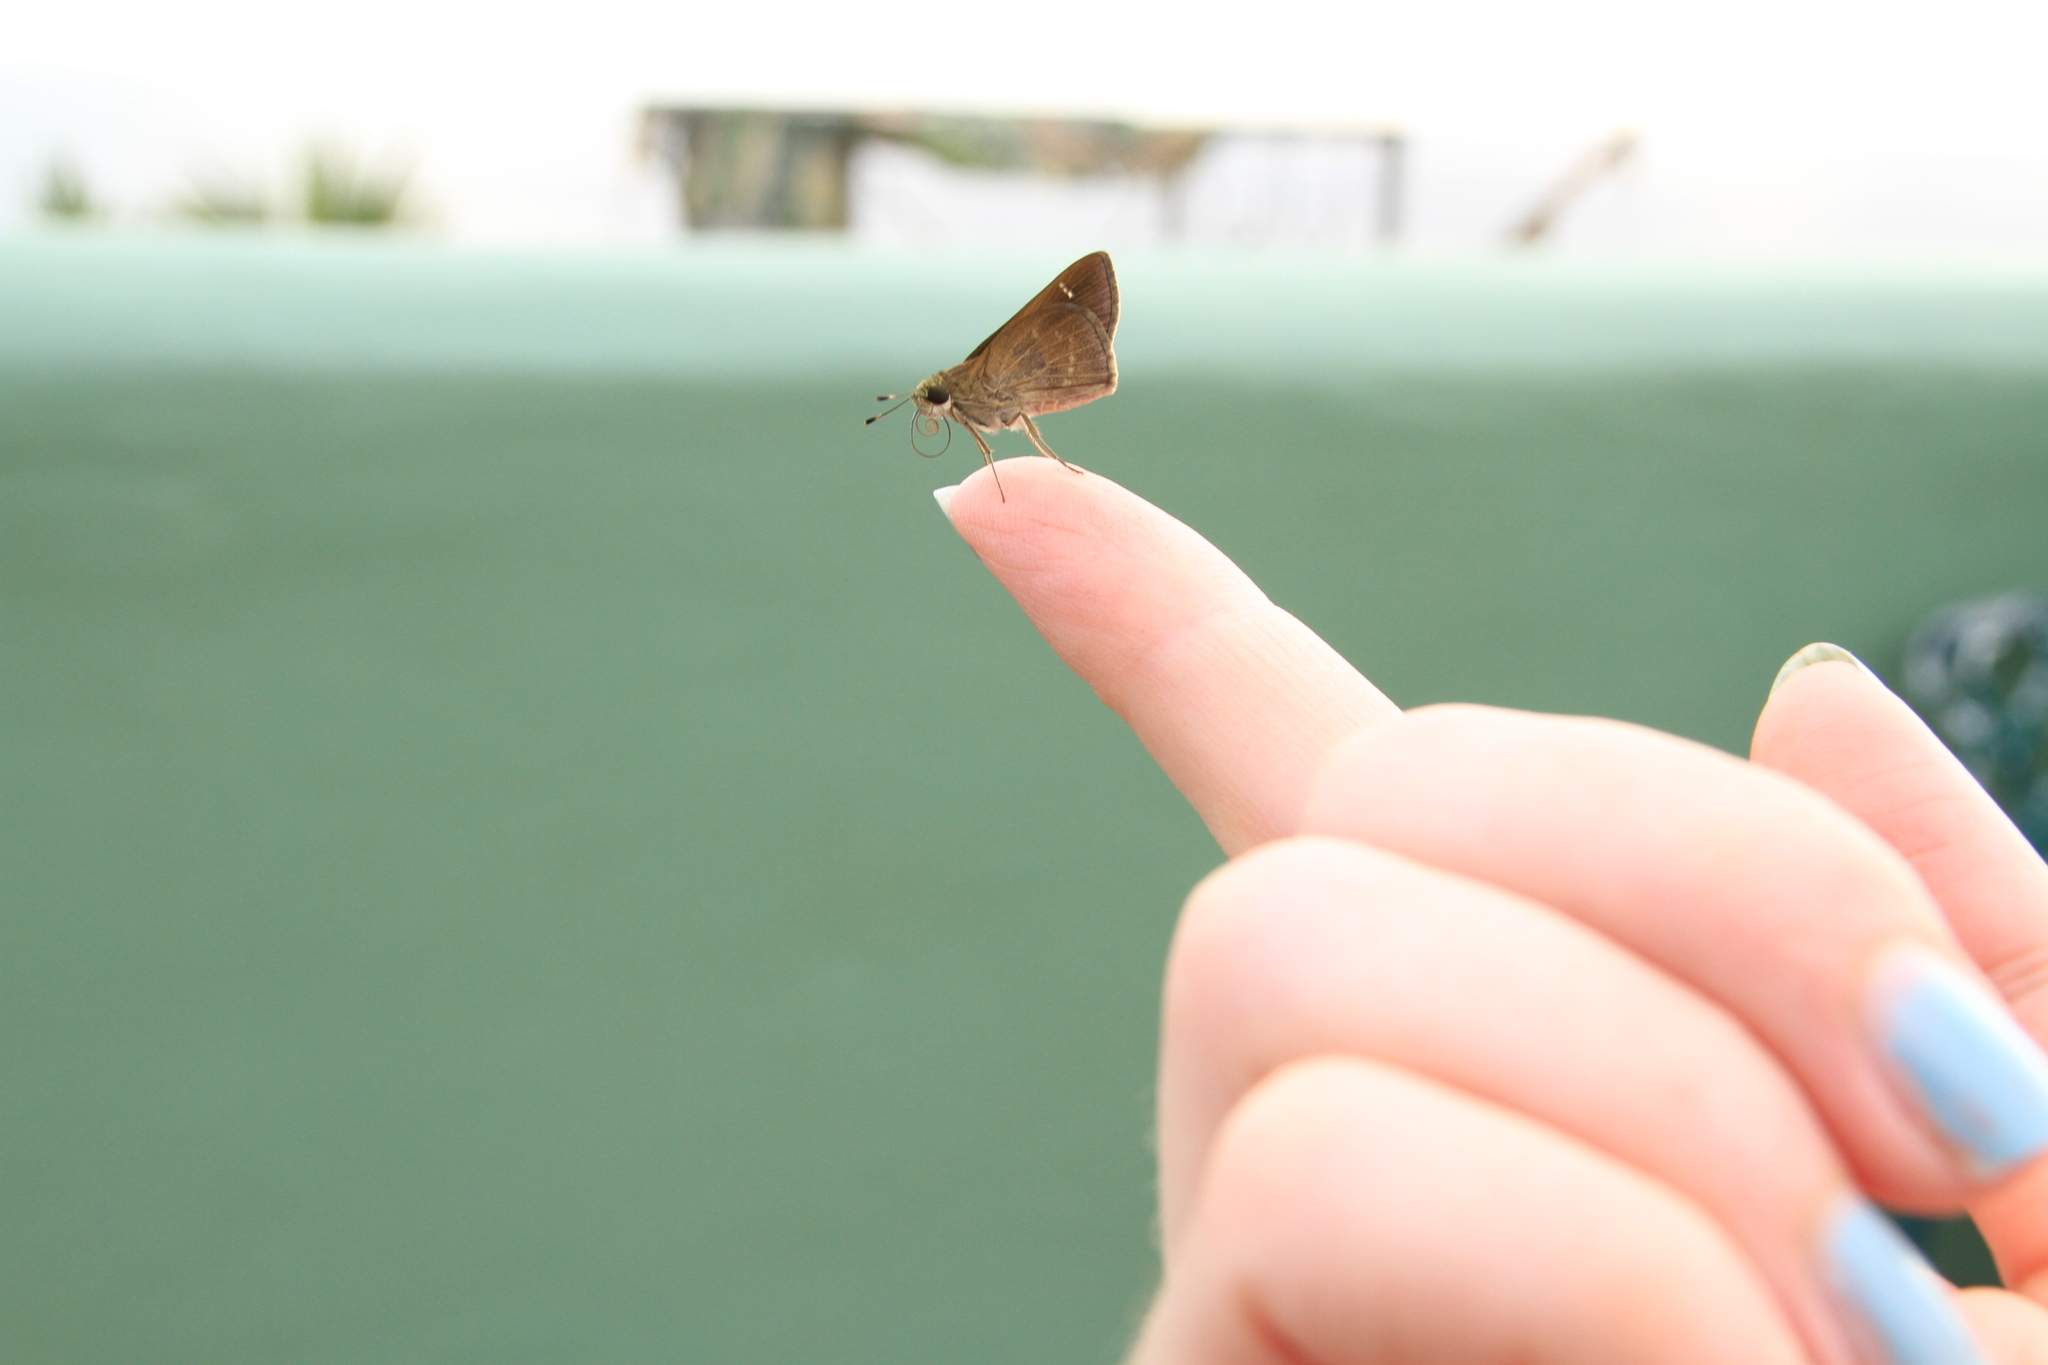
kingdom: Animalia
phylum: Arthropoda
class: Insecta
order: Lepidoptera
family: Hesperiidae
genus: Lerema
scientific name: Lerema ancillaris
